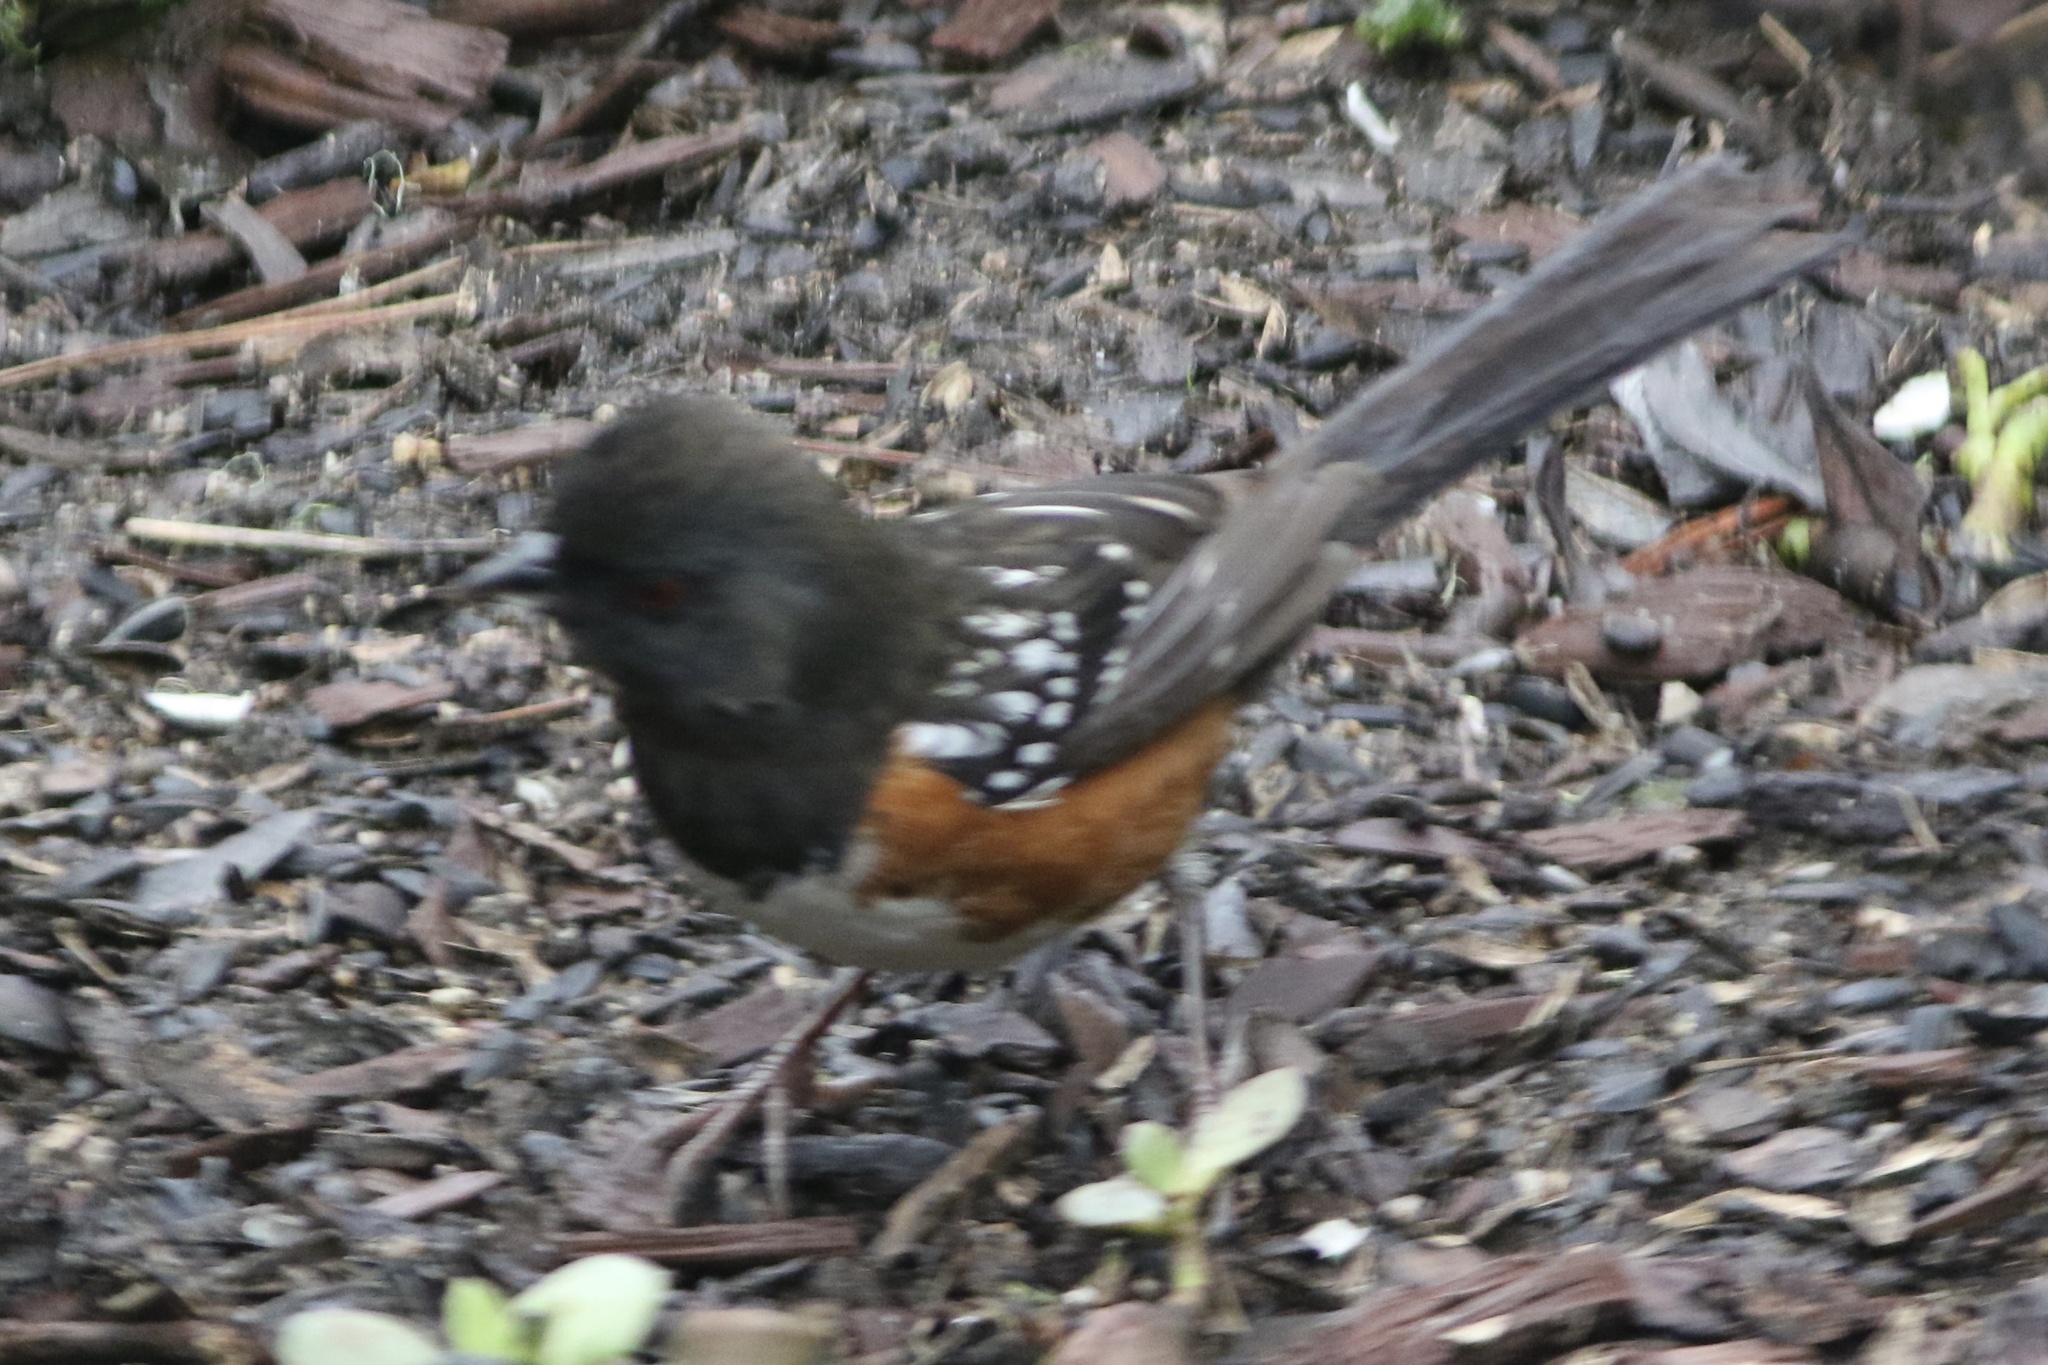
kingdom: Animalia
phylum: Chordata
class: Aves
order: Passeriformes
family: Passerellidae
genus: Pipilo
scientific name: Pipilo maculatus
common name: Spotted towhee
